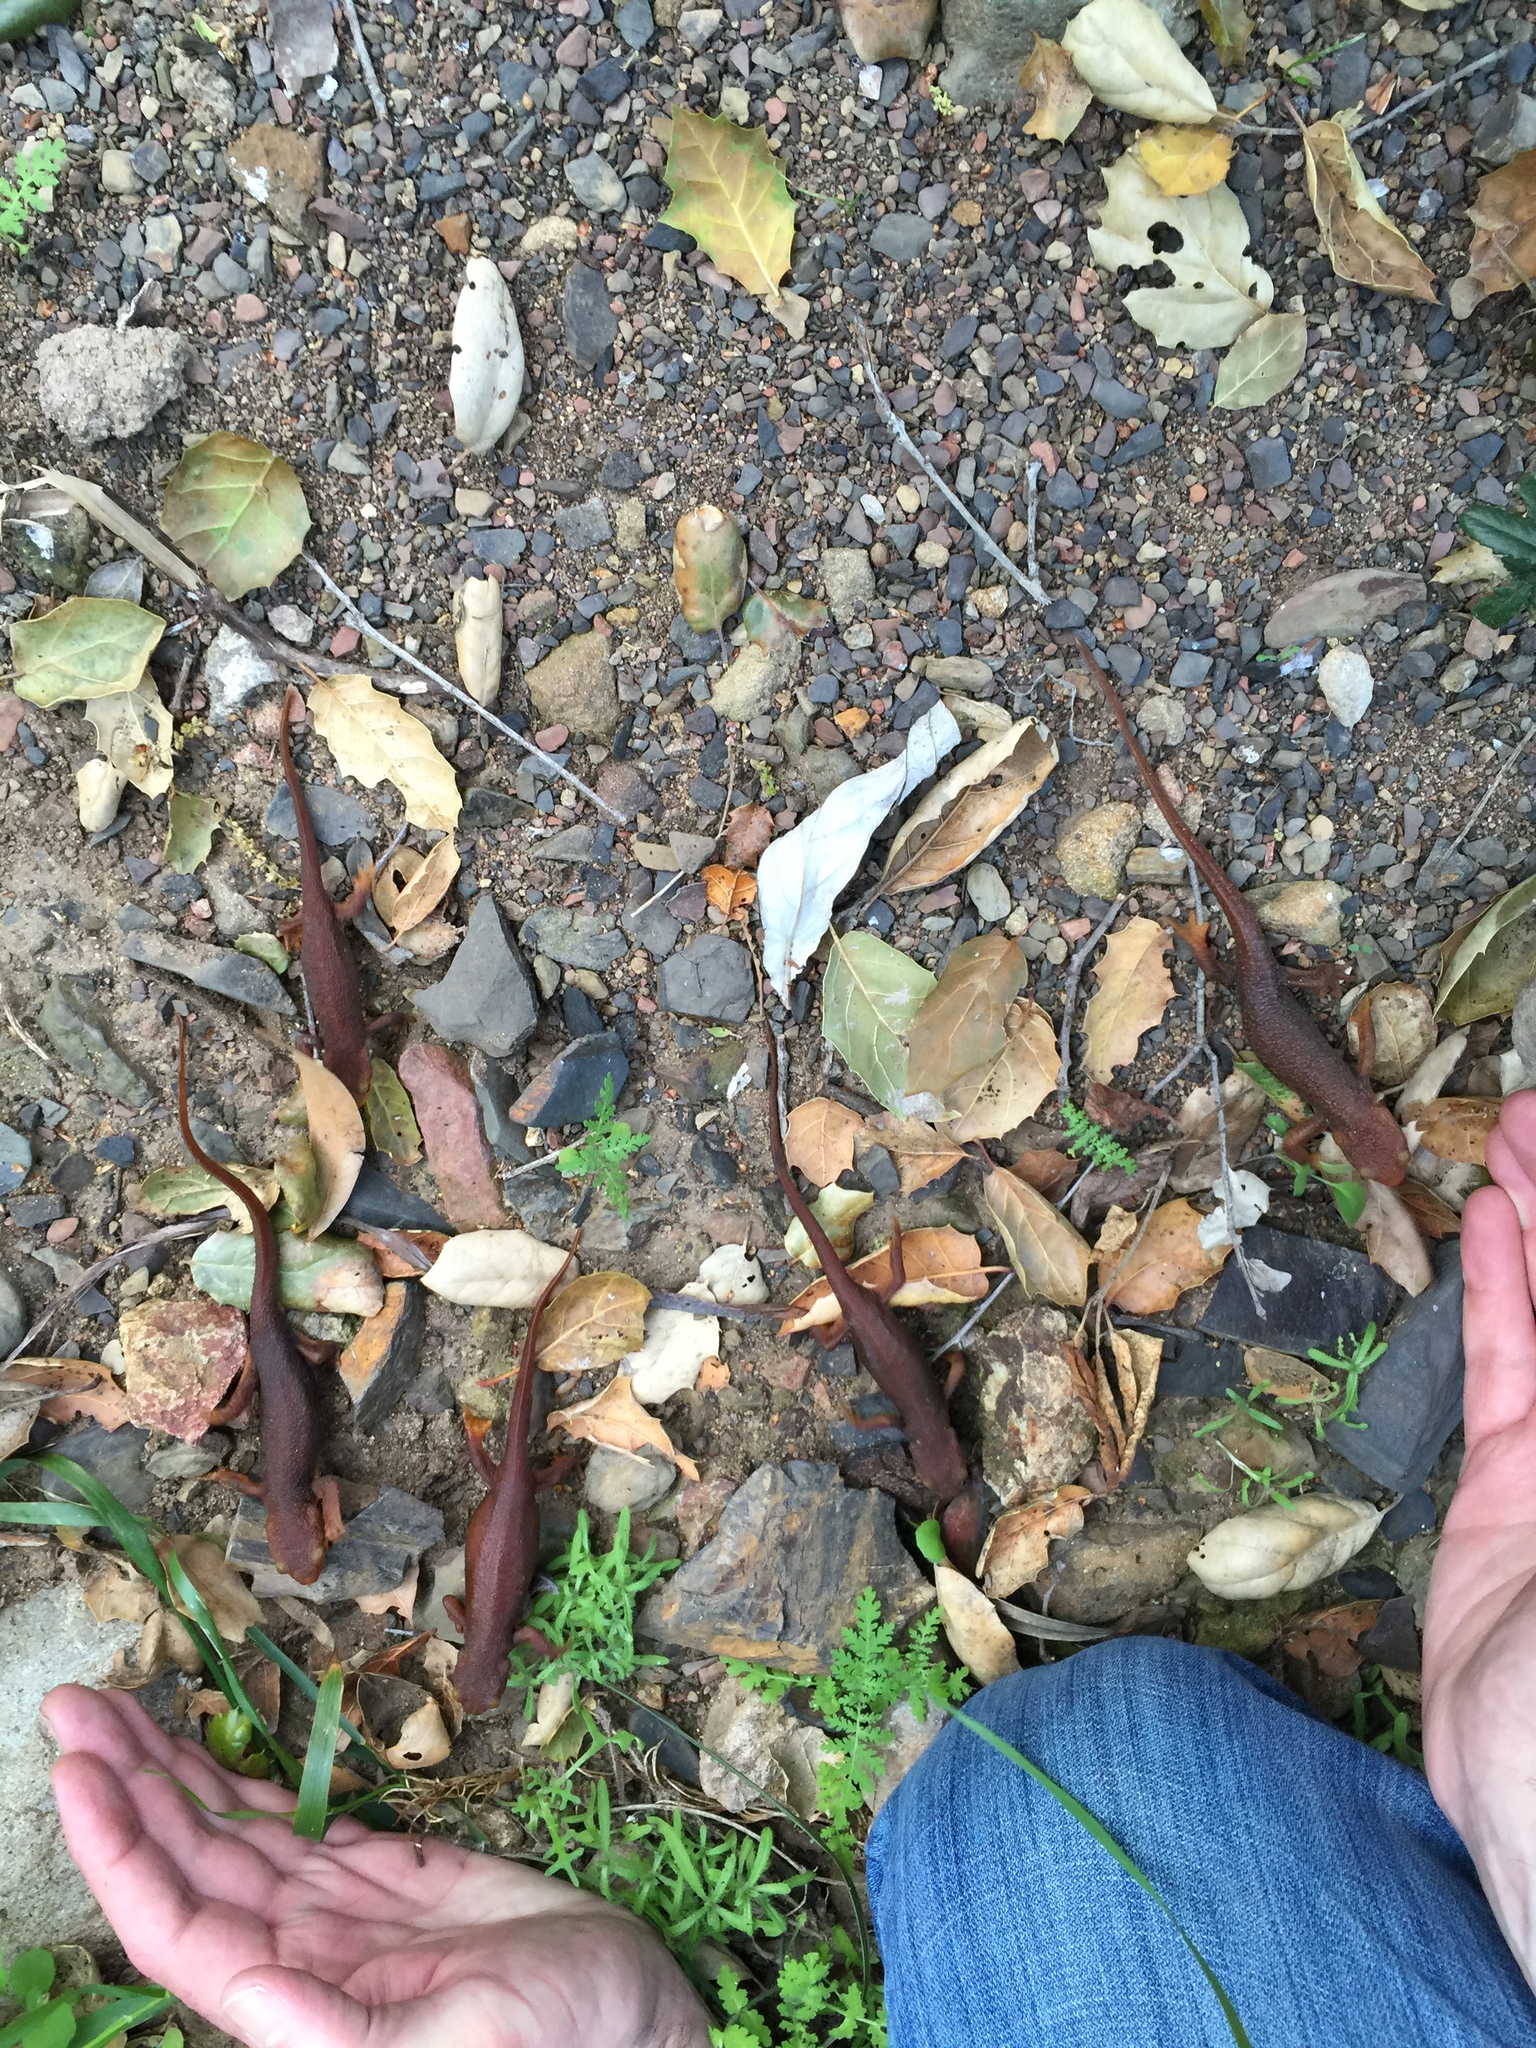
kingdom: Animalia
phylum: Chordata
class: Amphibia
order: Caudata
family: Salamandridae
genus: Taricha
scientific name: Taricha torosa
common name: California newt
